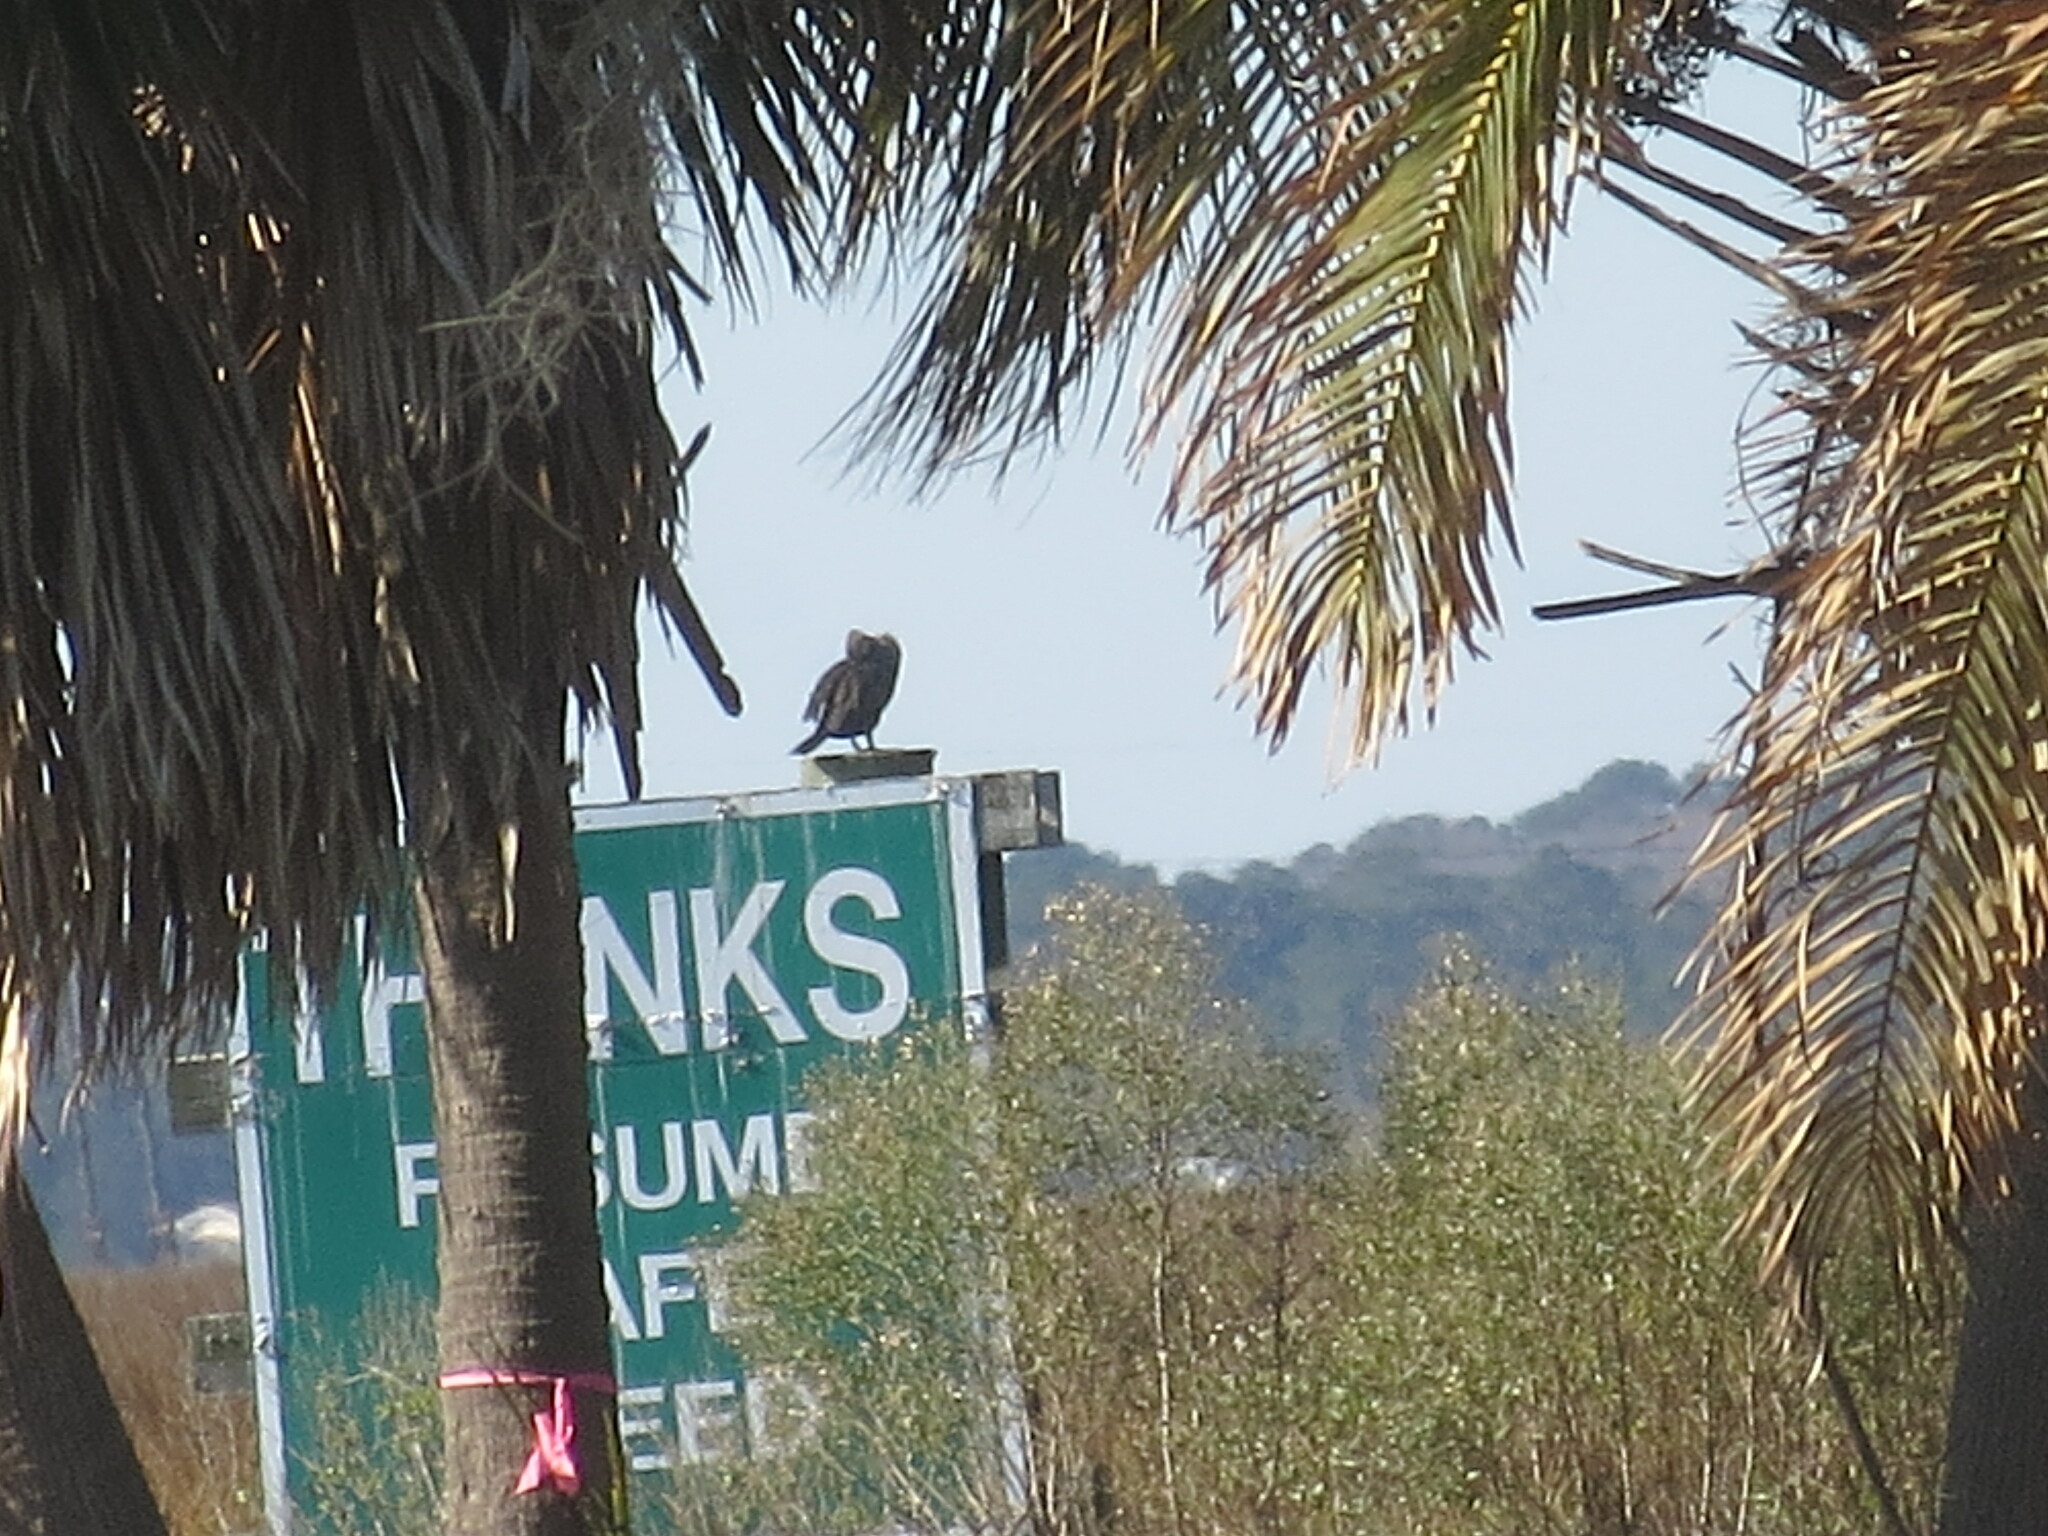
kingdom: Animalia
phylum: Chordata
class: Aves
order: Suliformes
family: Phalacrocoracidae
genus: Phalacrocorax
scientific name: Phalacrocorax auritus
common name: Double-crested cormorant
